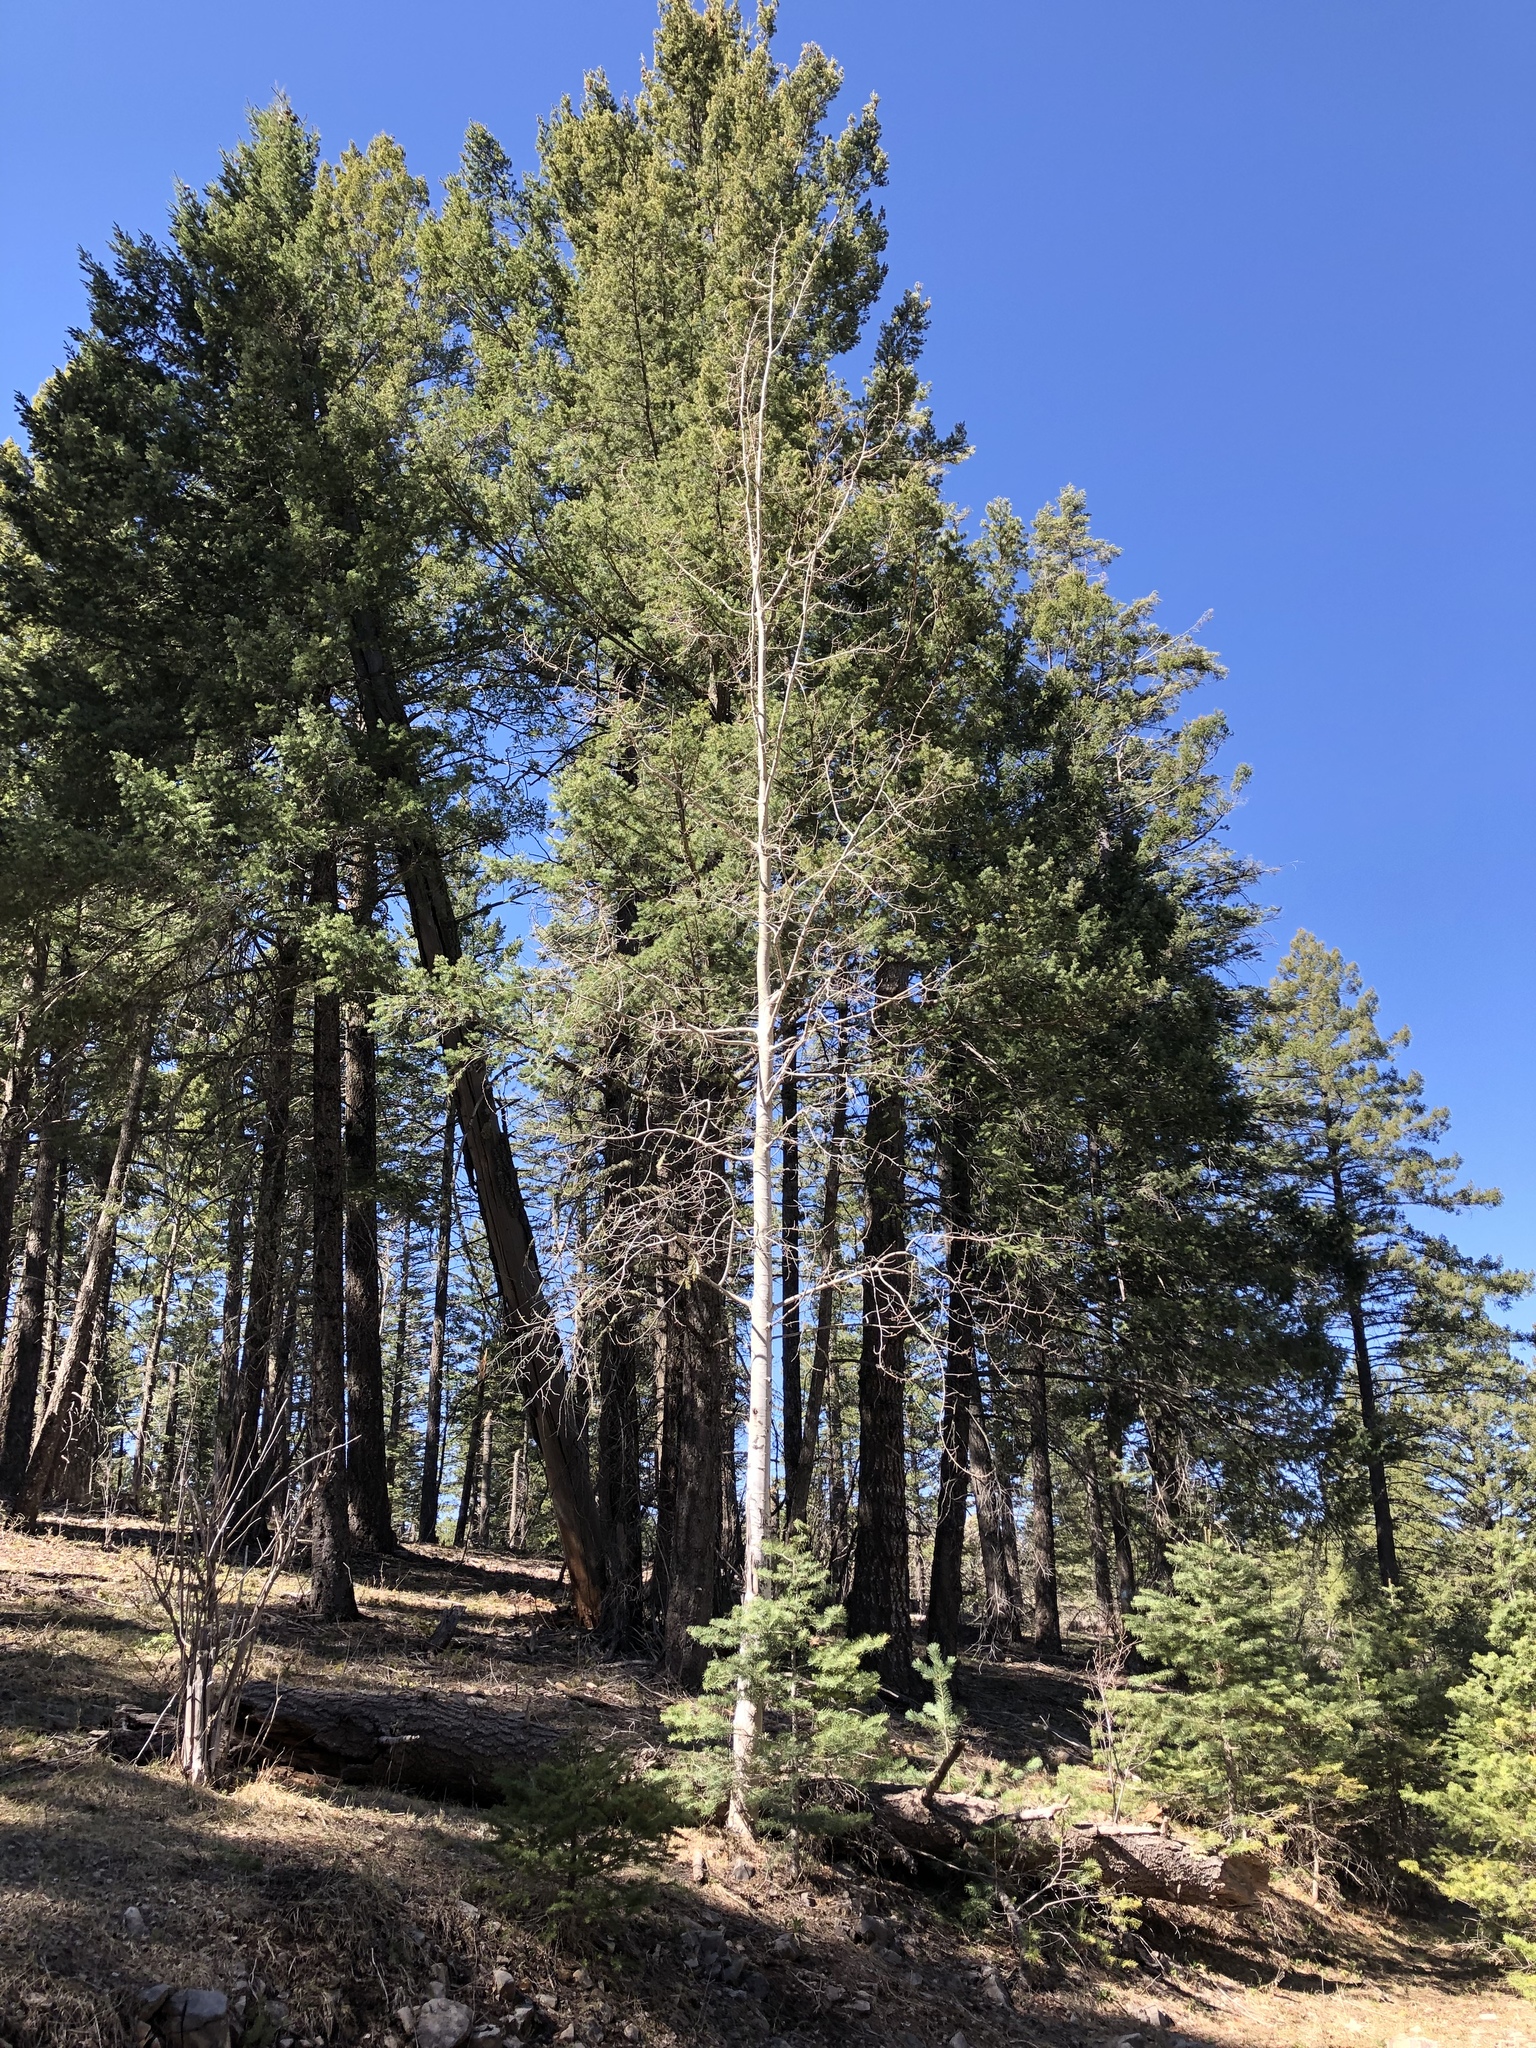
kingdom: Plantae
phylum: Tracheophyta
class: Magnoliopsida
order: Malpighiales
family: Salicaceae
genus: Populus
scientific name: Populus tremuloides
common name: Quaking aspen
